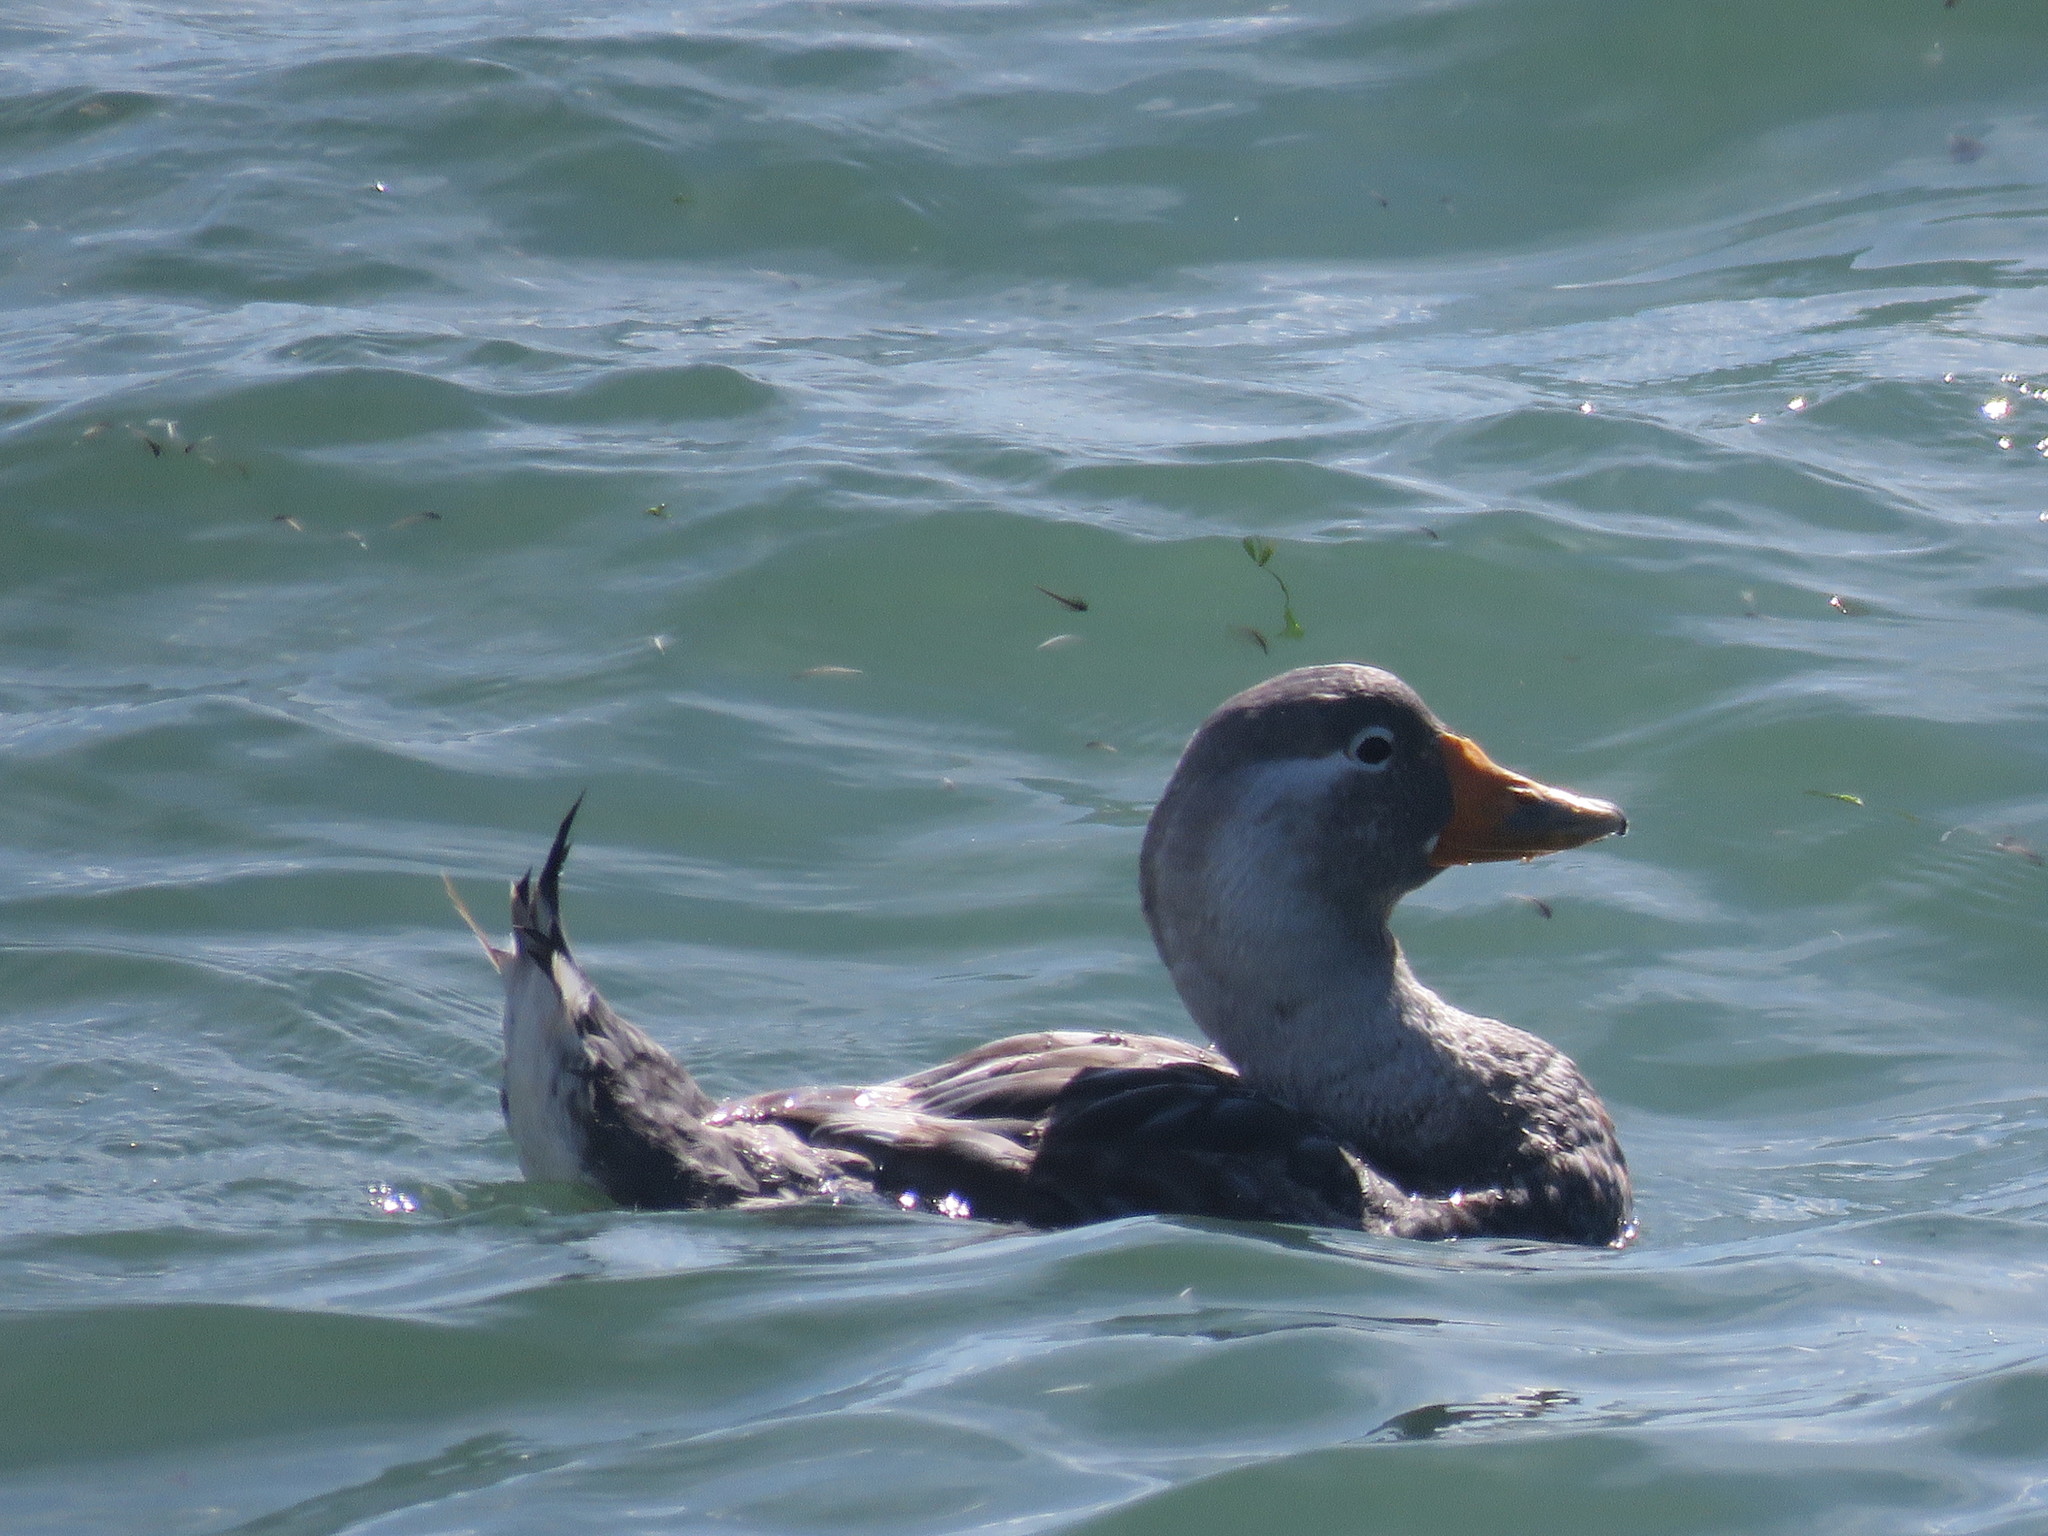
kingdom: Animalia
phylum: Chordata
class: Aves
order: Anseriformes
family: Anatidae
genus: Tachyeres
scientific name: Tachyeres patachonicus
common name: Flying steamer duck
